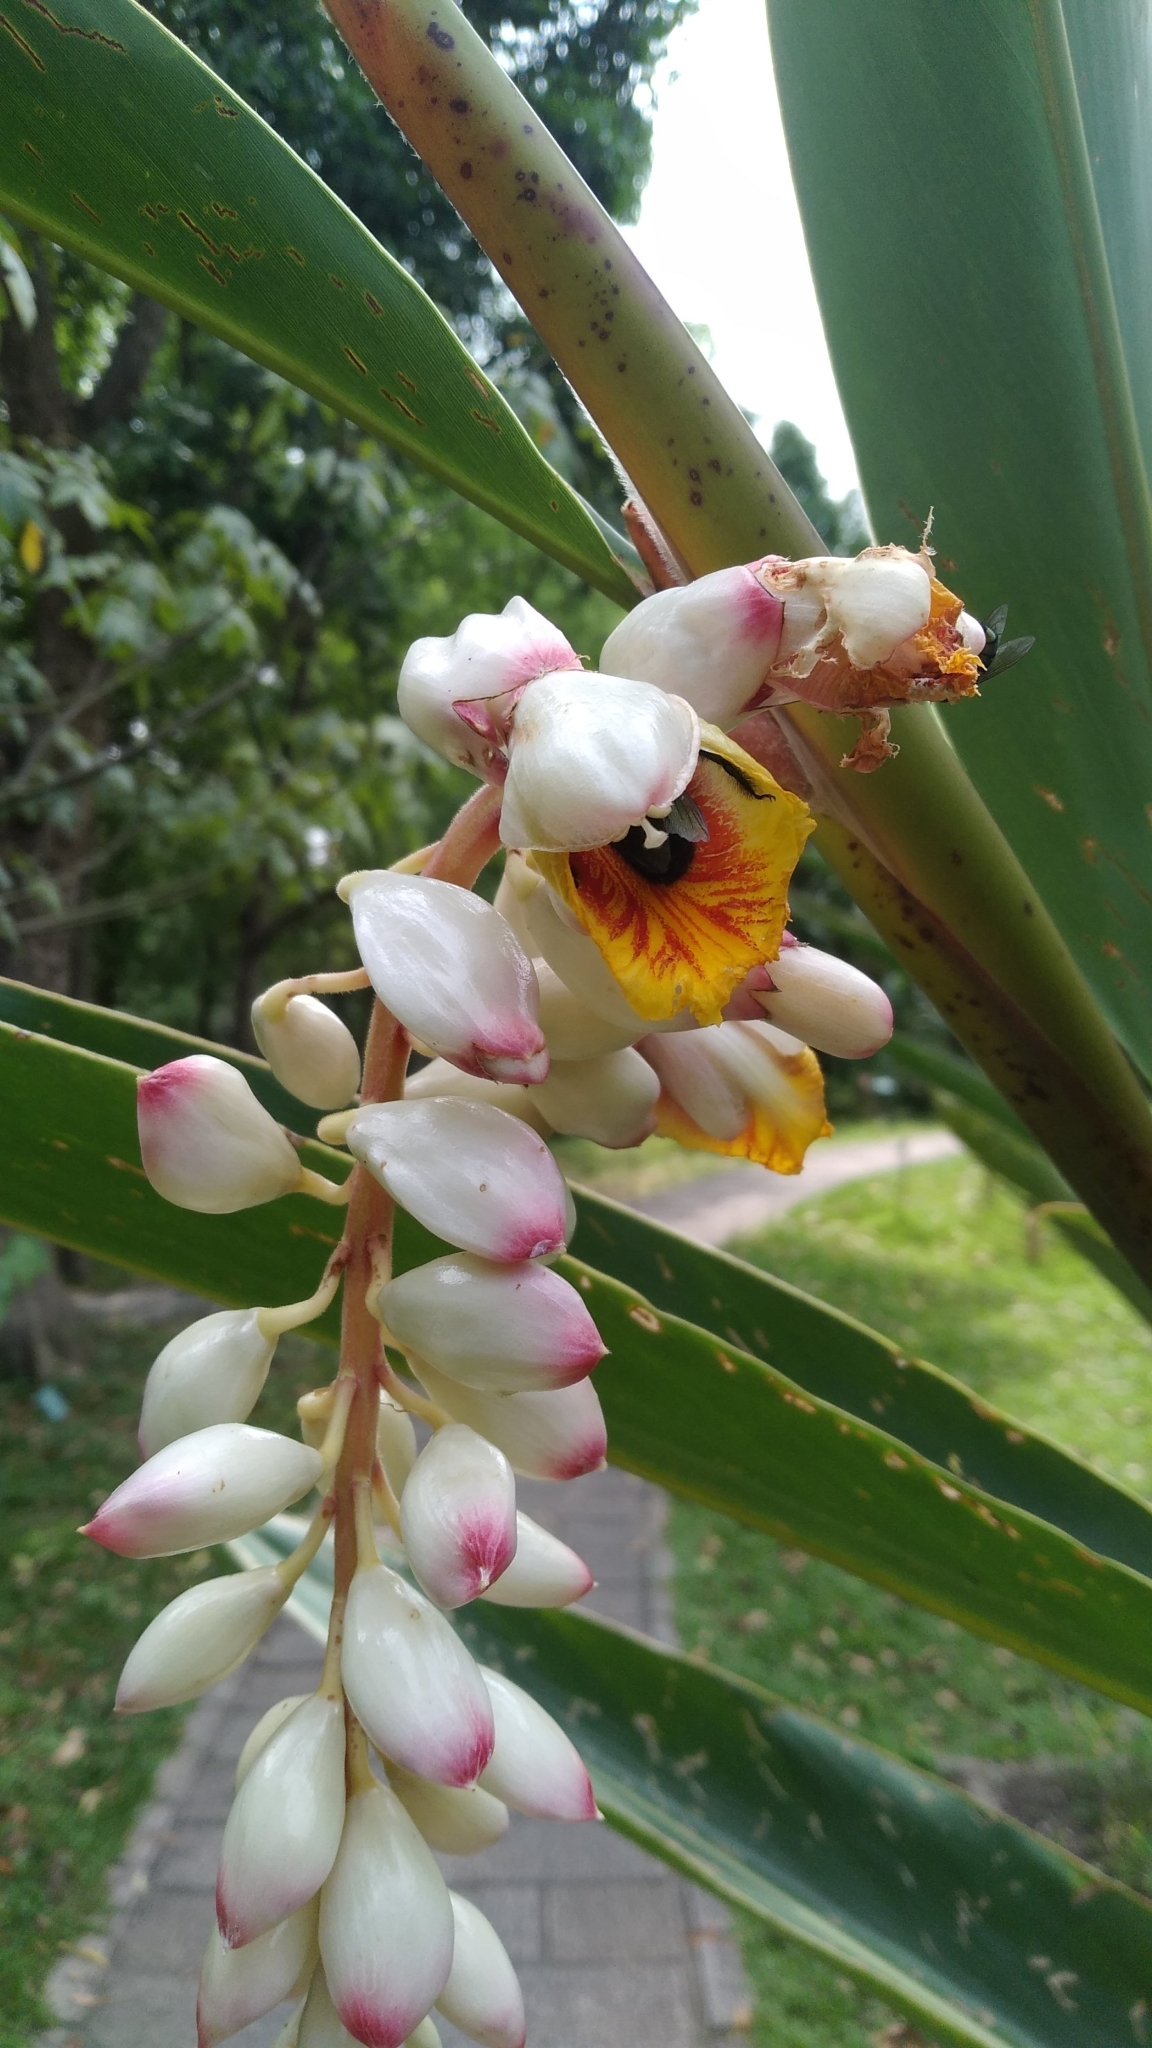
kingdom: Animalia
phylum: Arthropoda
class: Insecta
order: Hymenoptera
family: Apidae
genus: Xylocopa
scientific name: Xylocopa tranquebarorum
